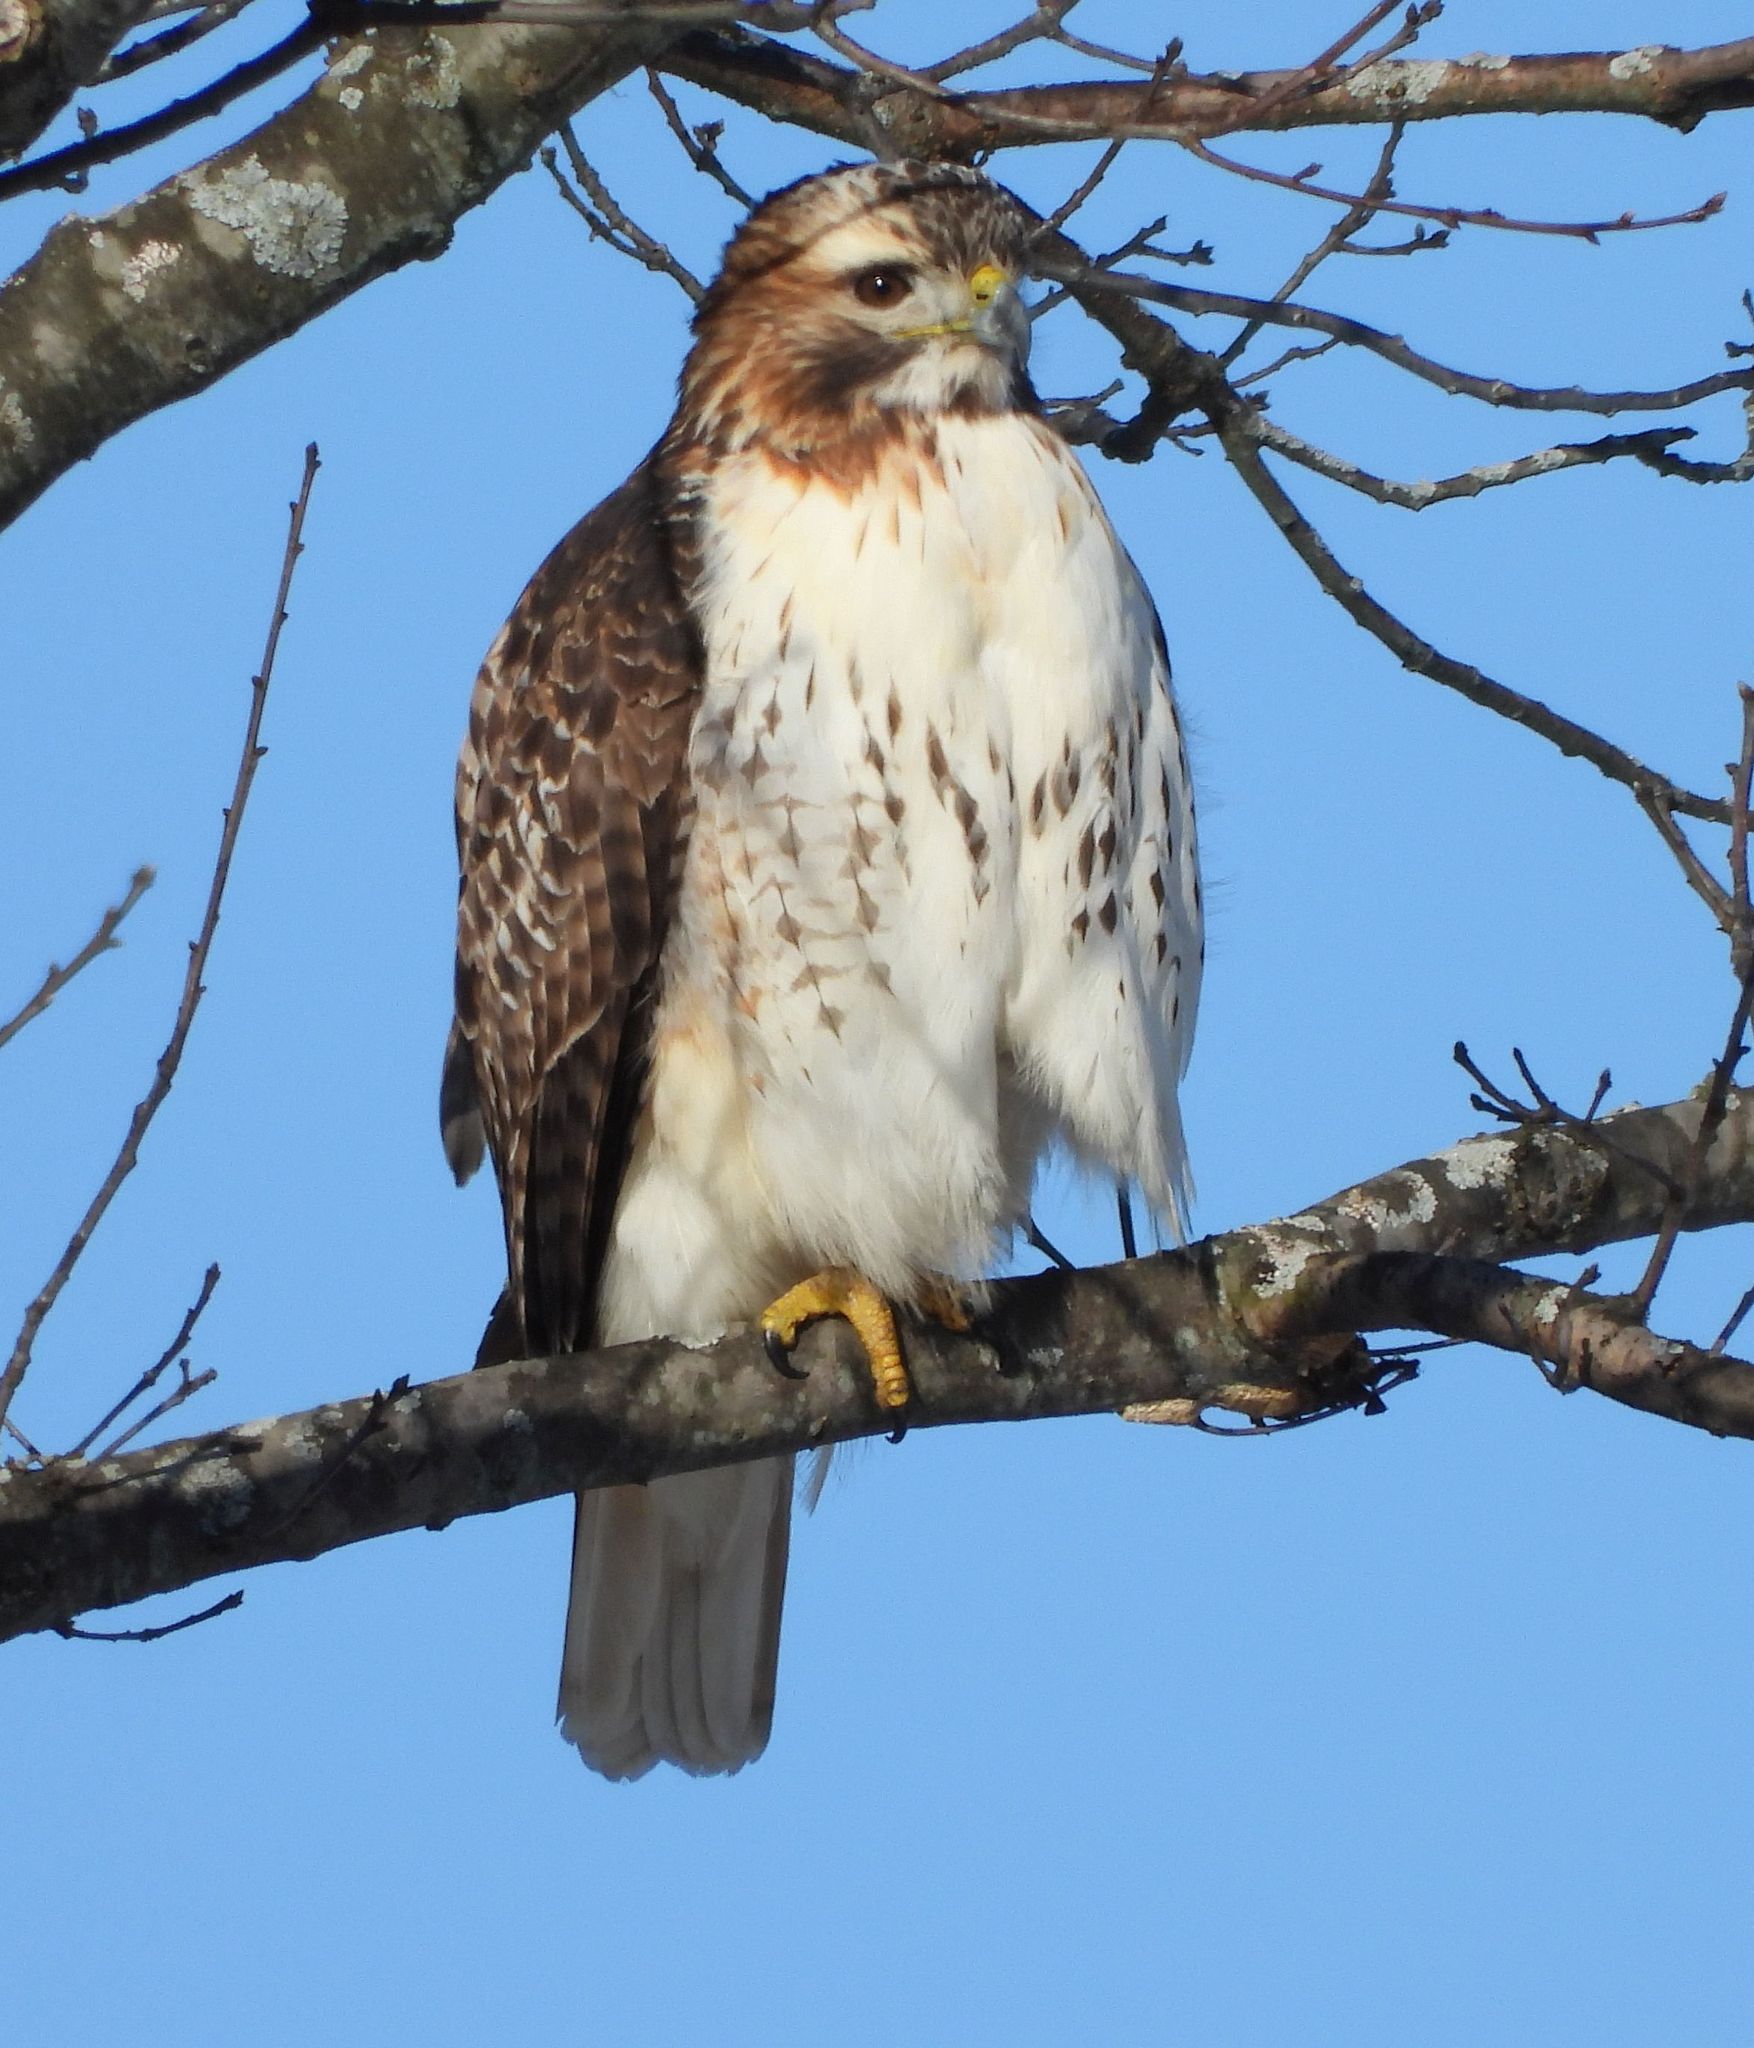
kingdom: Animalia
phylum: Chordata
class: Aves
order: Accipitriformes
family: Accipitridae
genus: Buteo
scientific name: Buteo jamaicensis
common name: Red-tailed hawk
